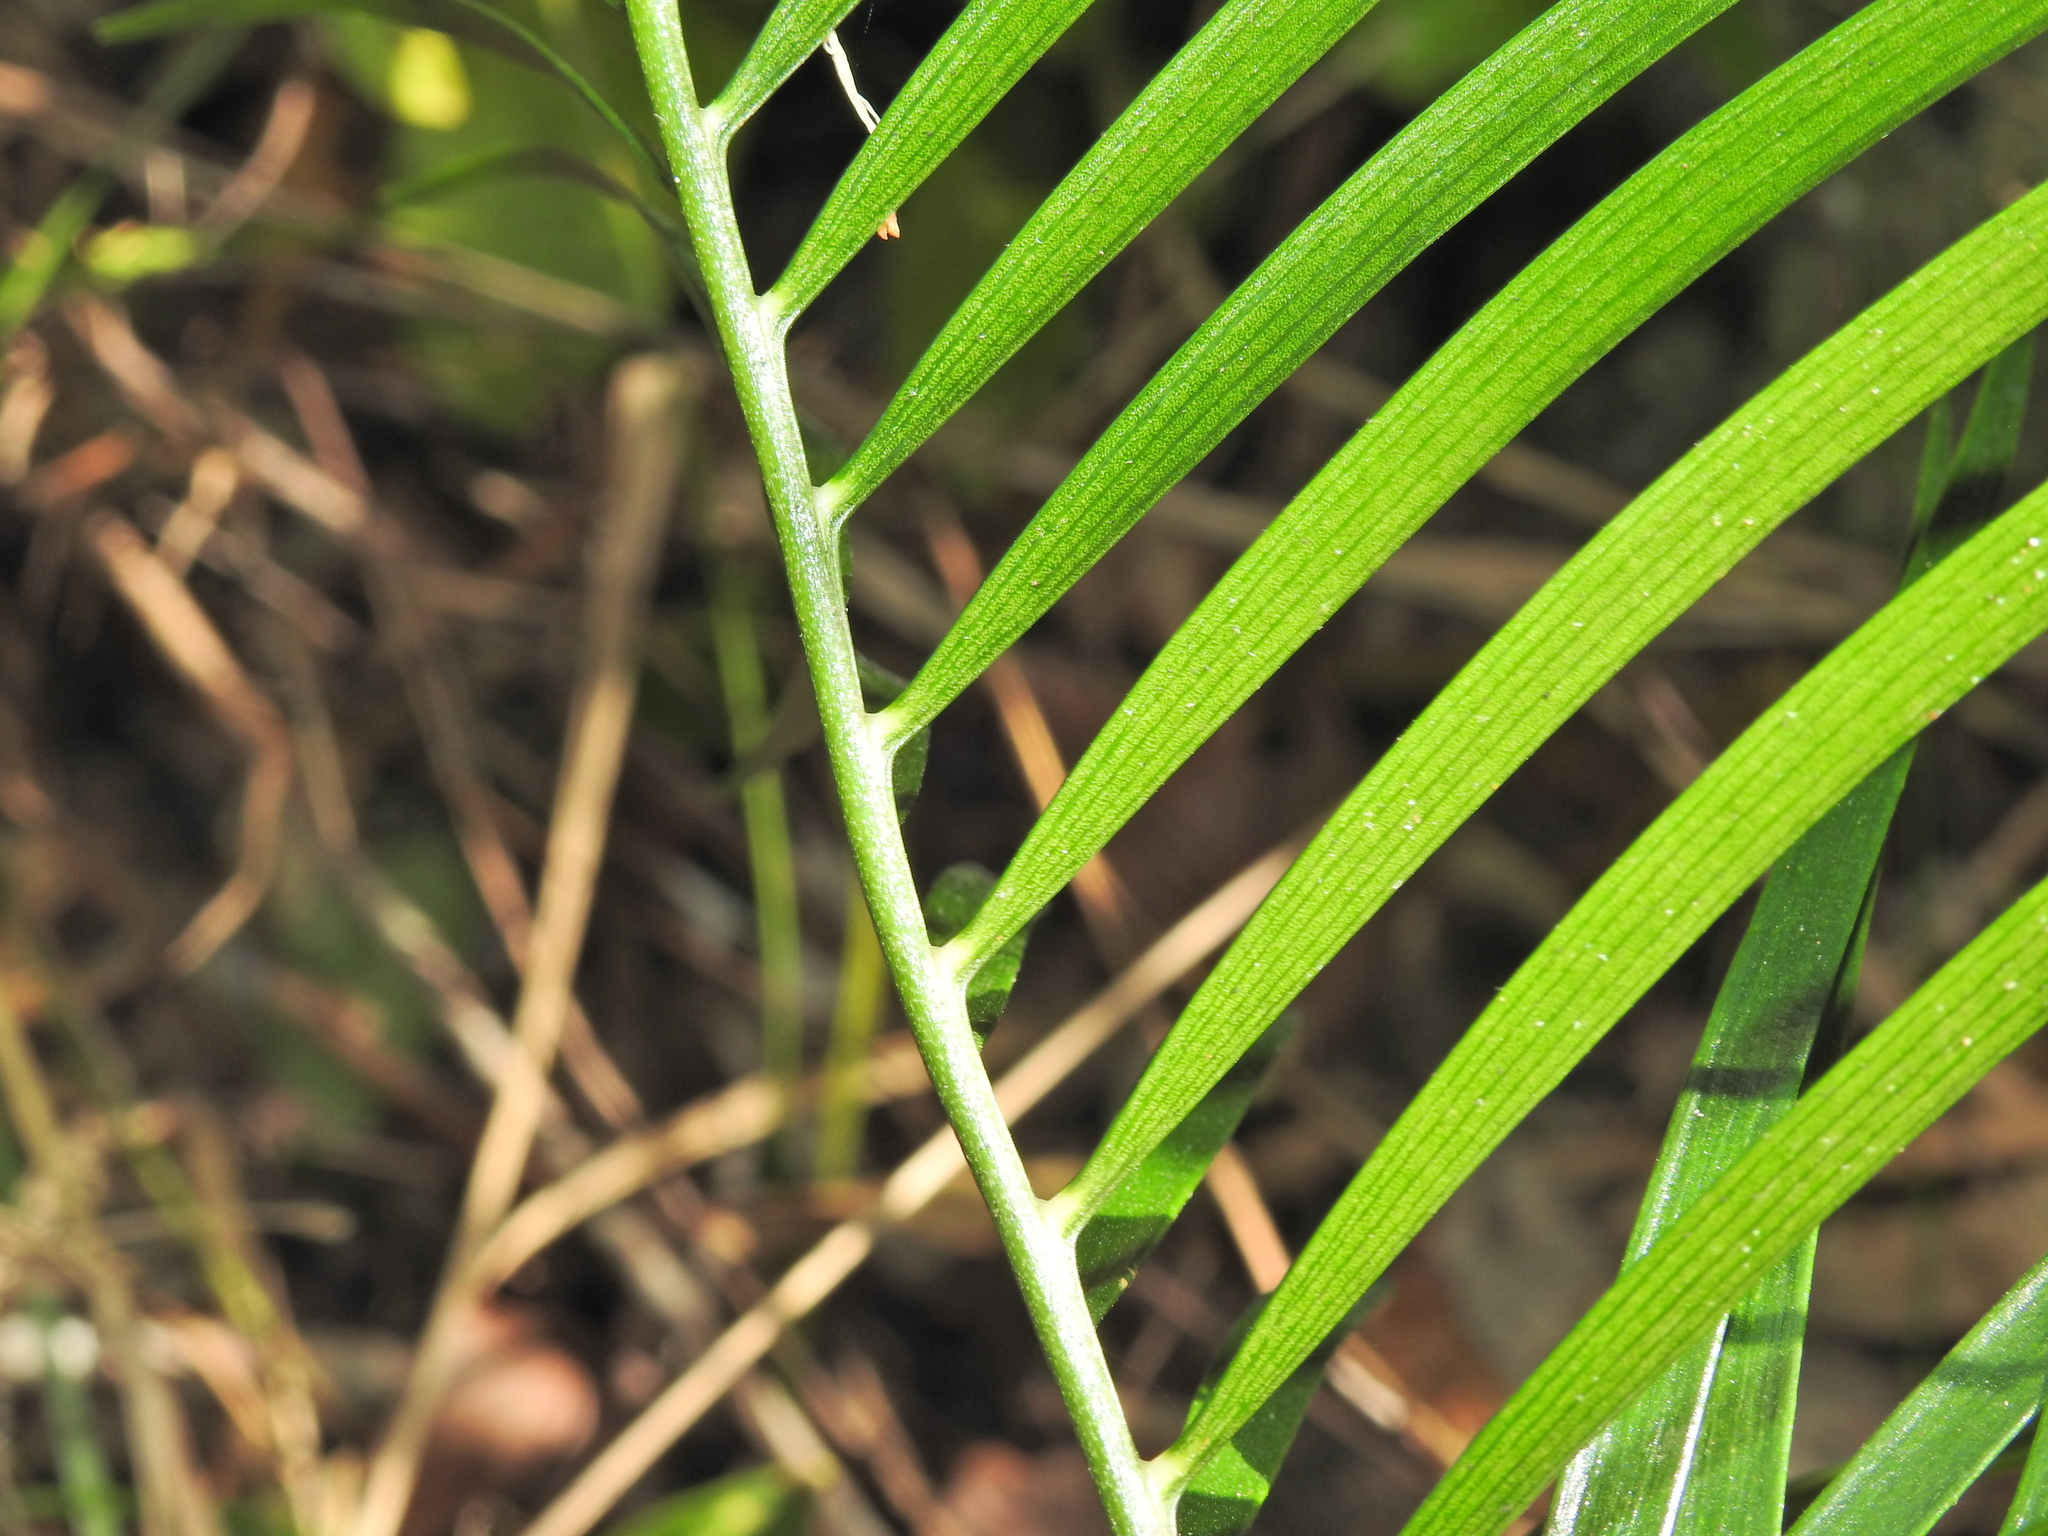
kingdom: Plantae
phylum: Tracheophyta
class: Cycadopsida
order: Cycadales
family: Zamiaceae
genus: Macrozamia
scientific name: Macrozamia douglasii
